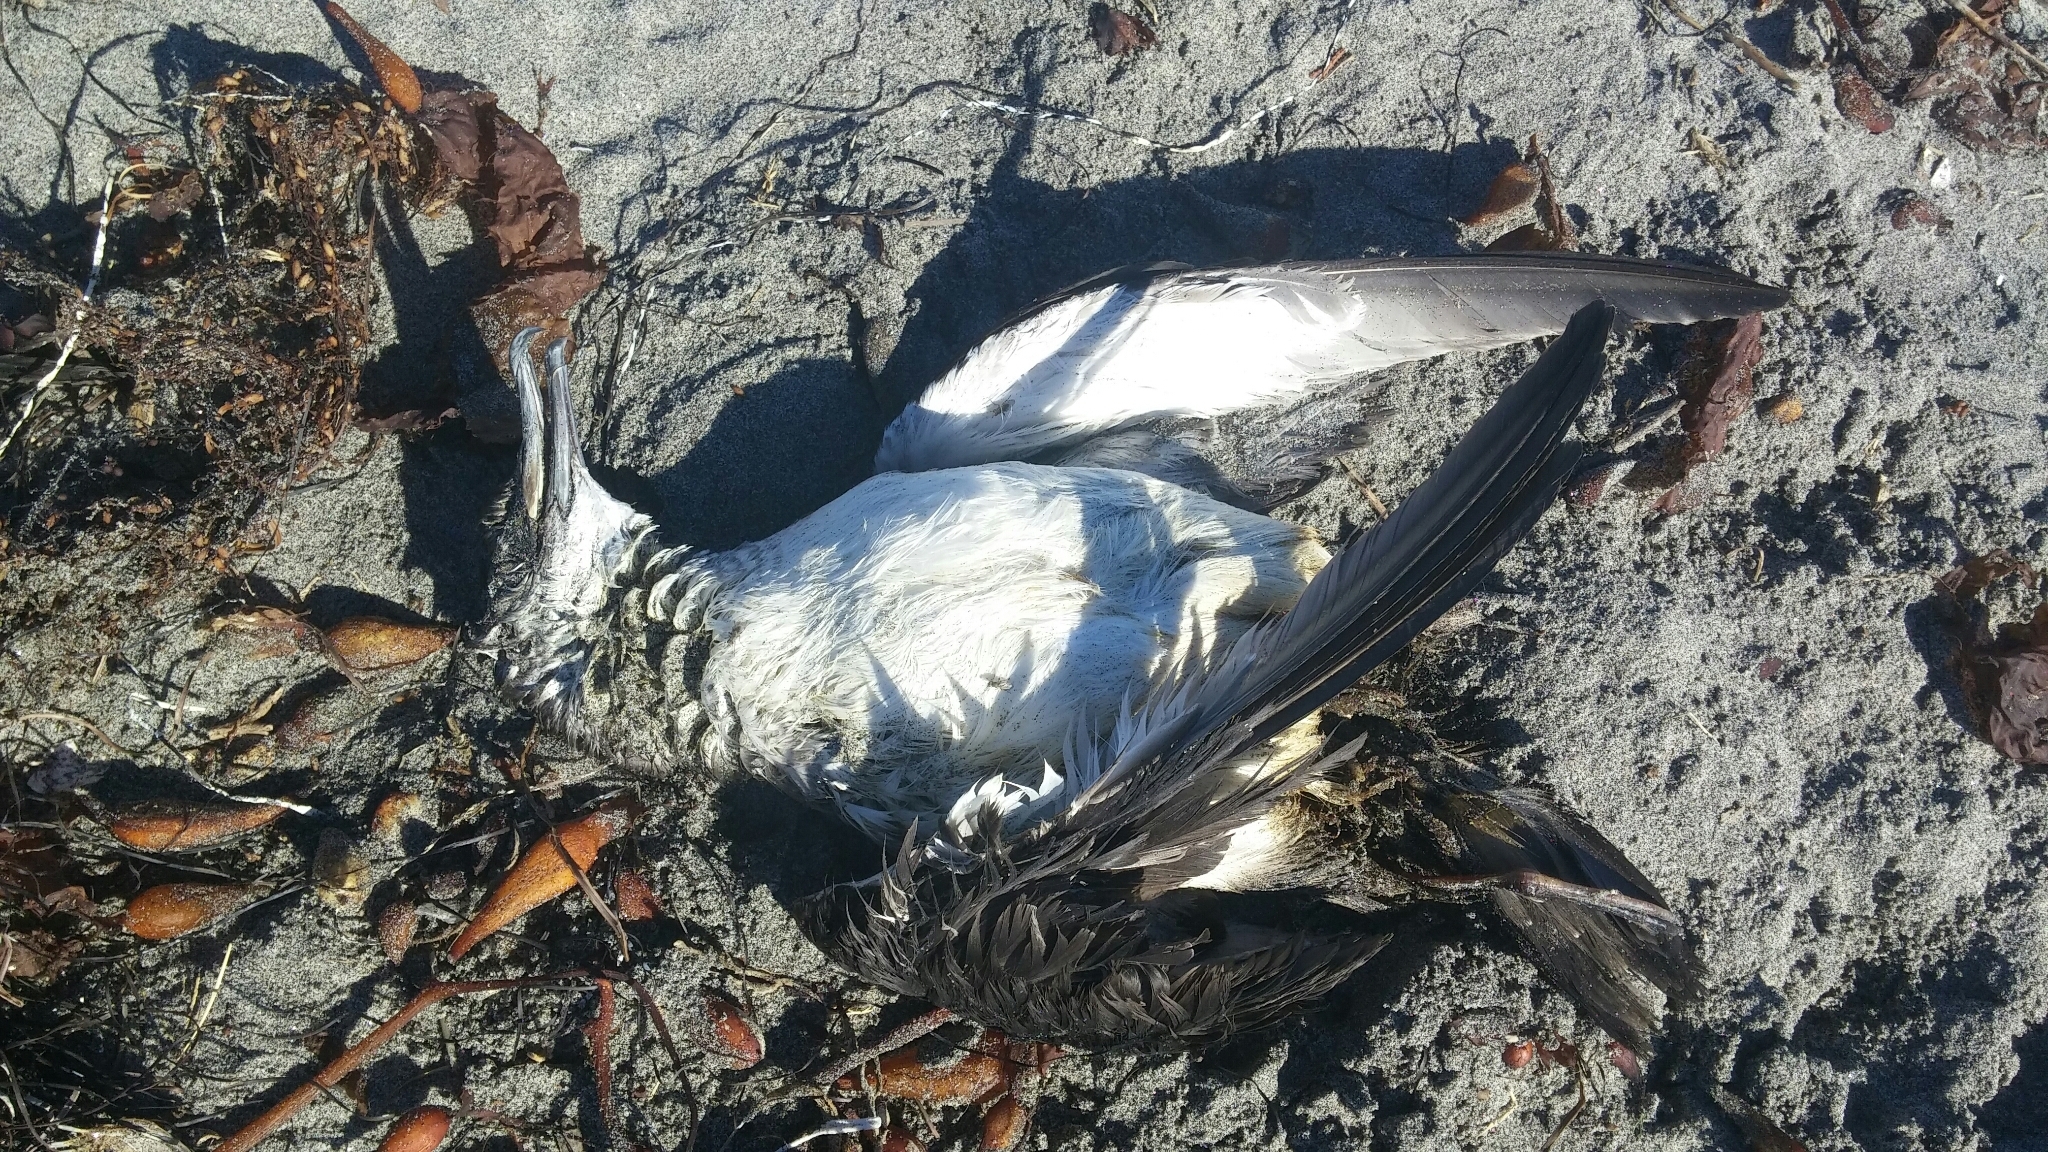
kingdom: Animalia
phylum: Chordata
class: Aves
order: Procellariiformes
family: Procellariidae
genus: Puffinus
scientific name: Puffinus opisthomelas
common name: Black-vented shearwater
